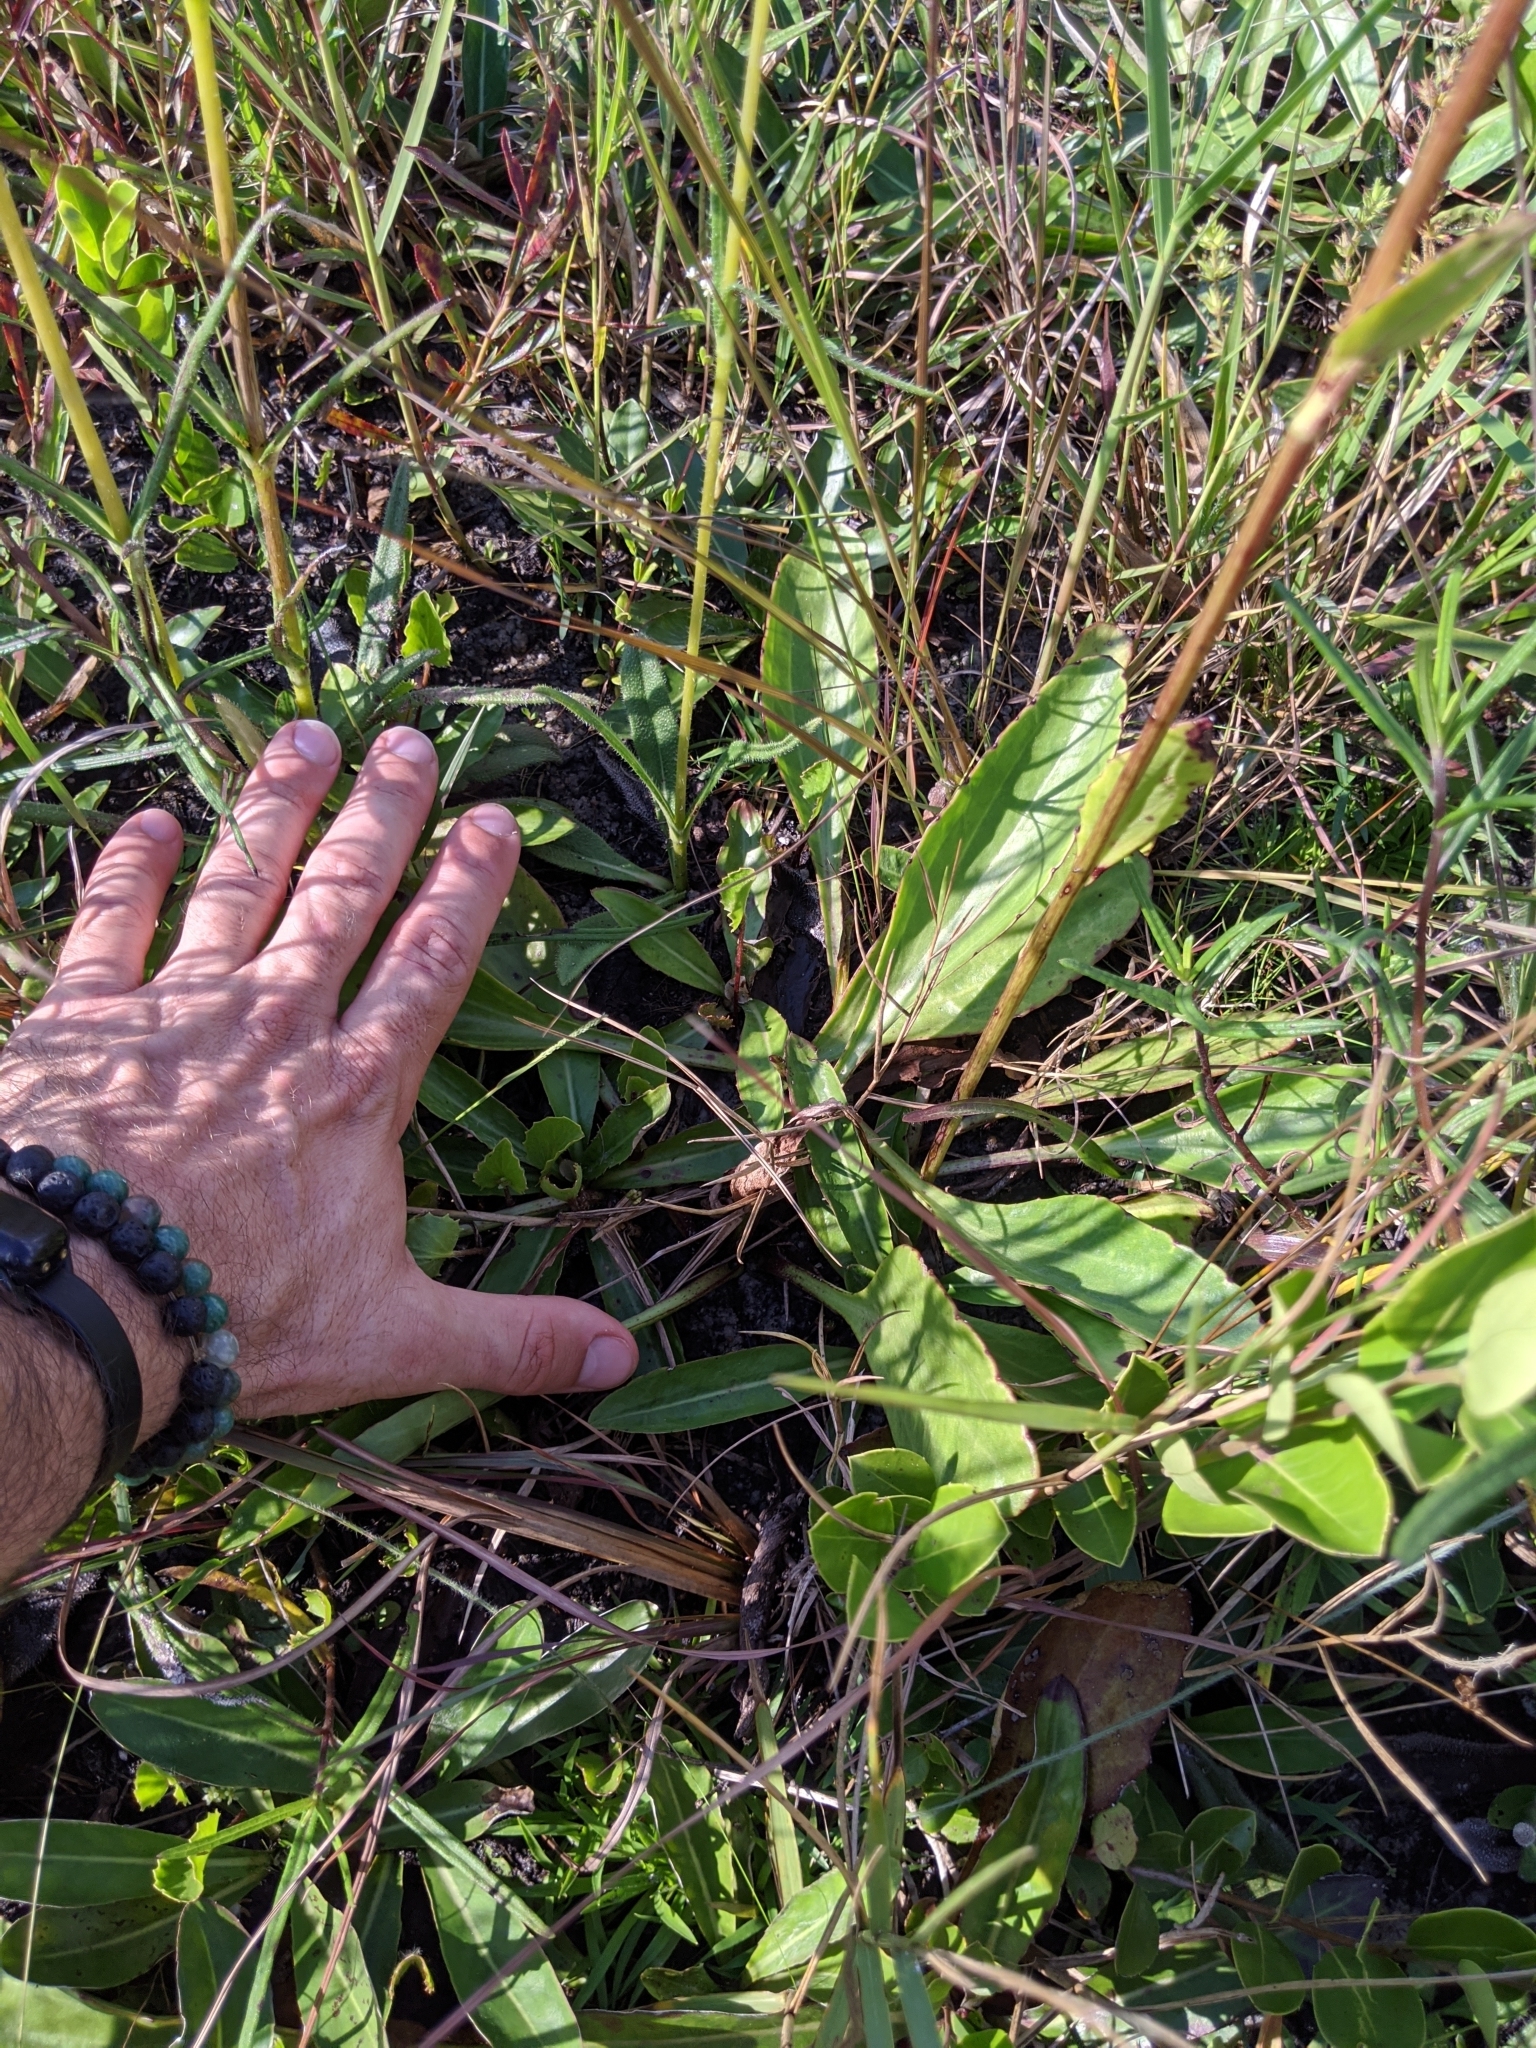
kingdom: Plantae
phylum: Tracheophyta
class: Magnoliopsida
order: Asterales
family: Asteraceae
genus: Arnoglossum
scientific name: Arnoglossum album
